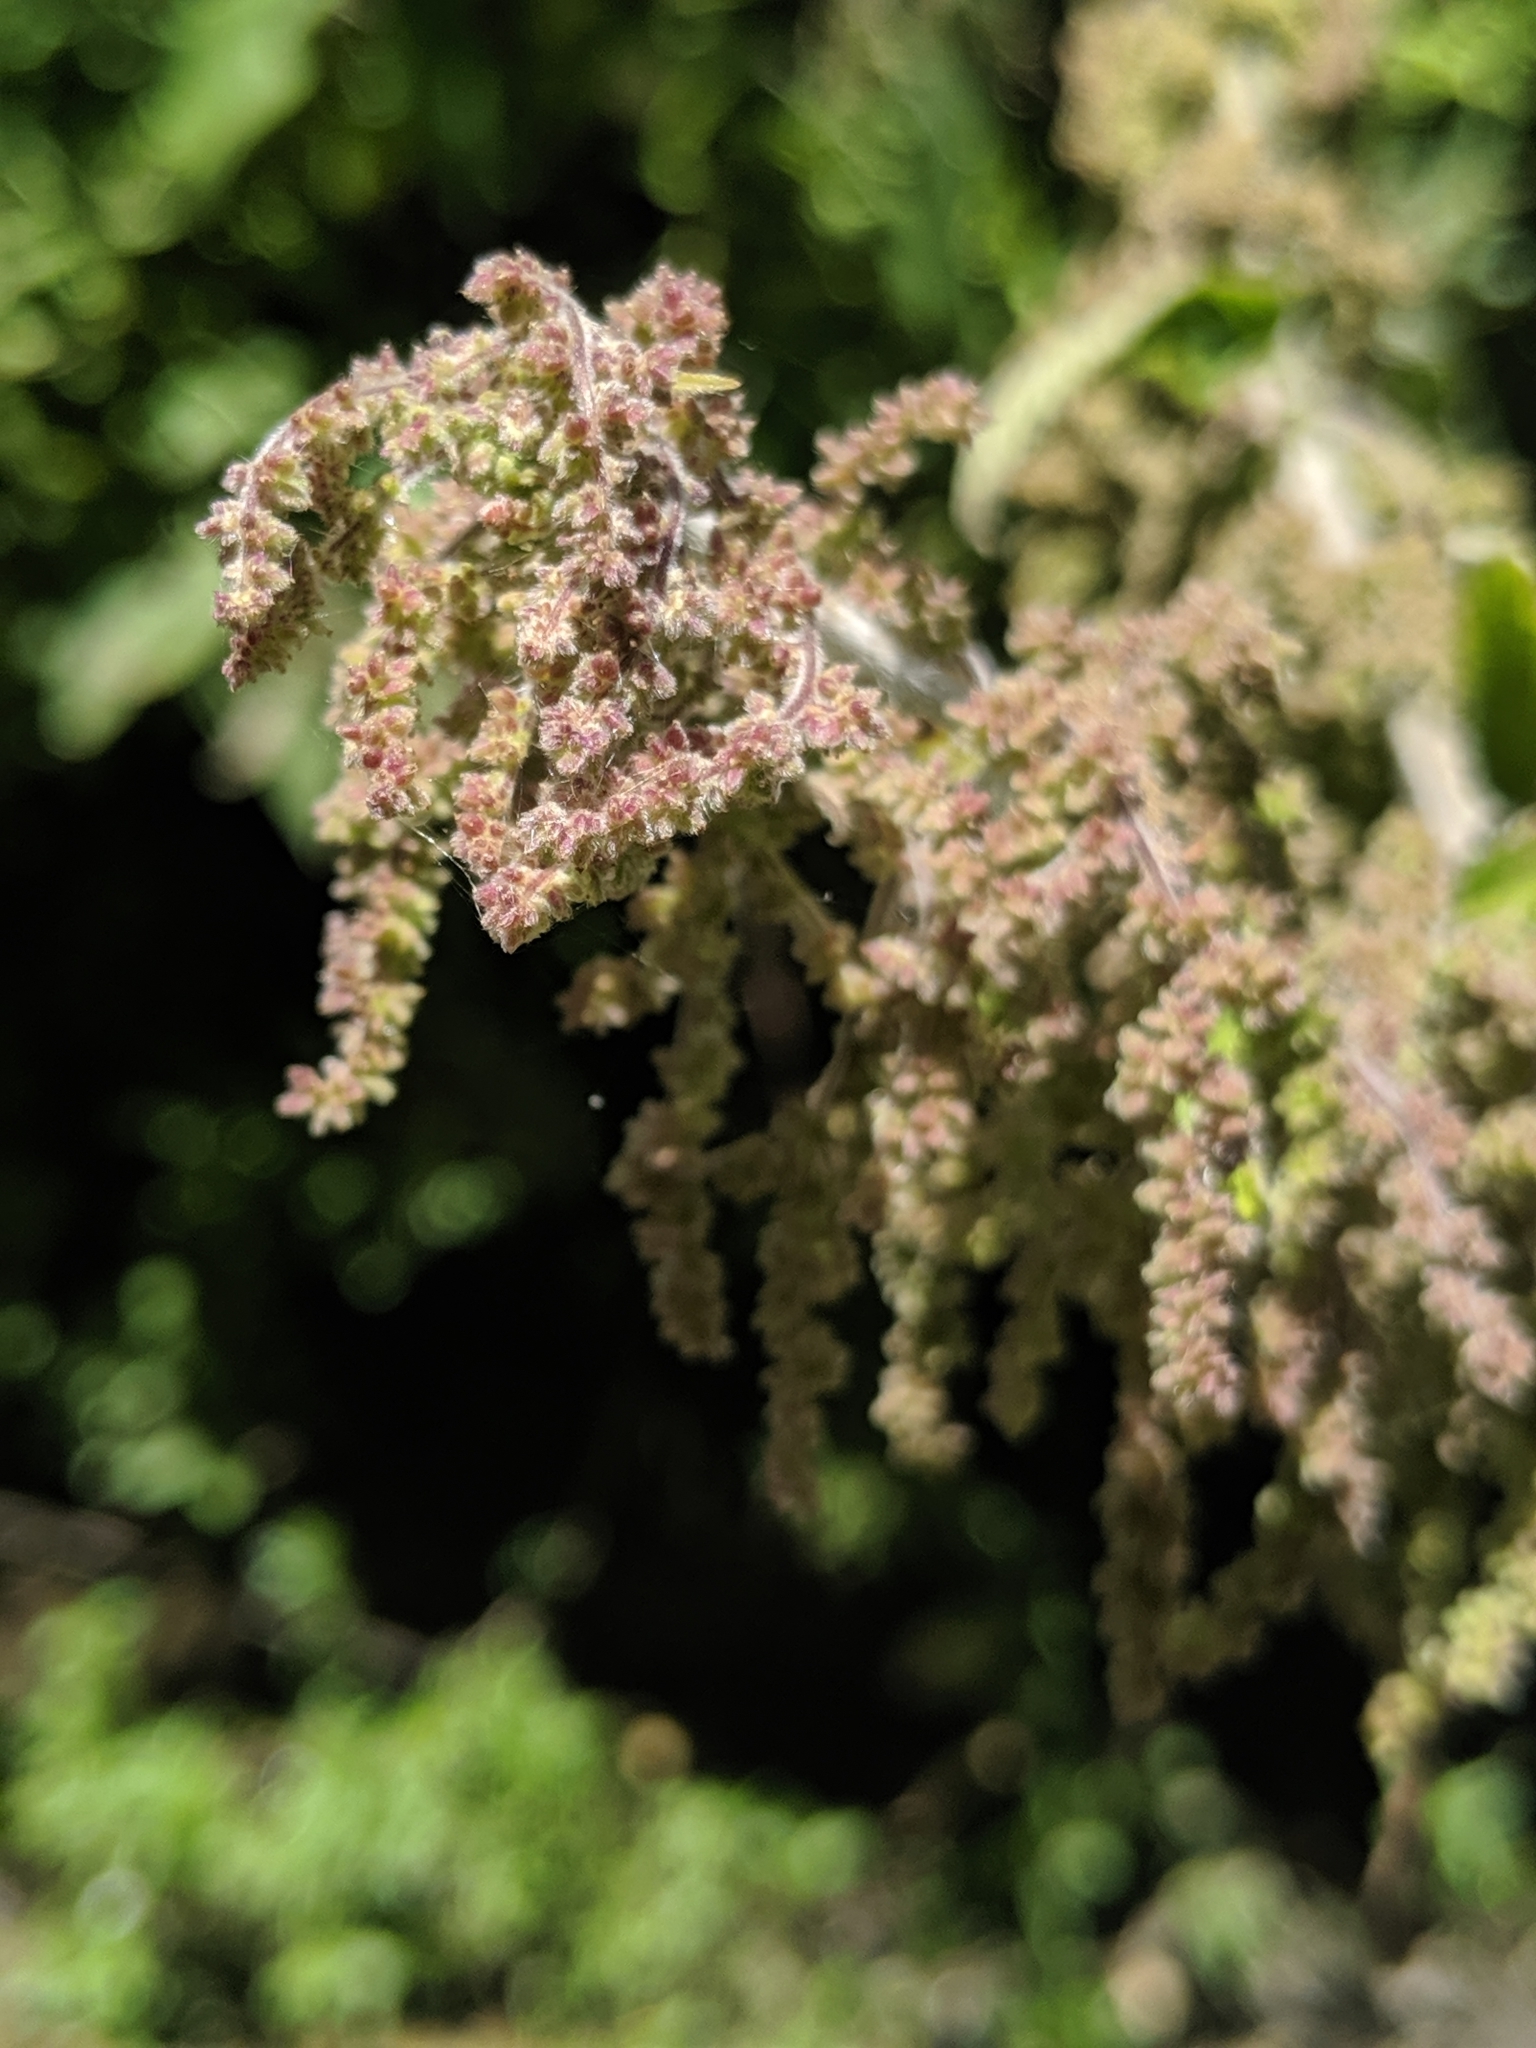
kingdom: Plantae
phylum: Tracheophyta
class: Magnoliopsida
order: Rosales
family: Urticaceae
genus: Urtica
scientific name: Urtica dioica
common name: Common nettle
